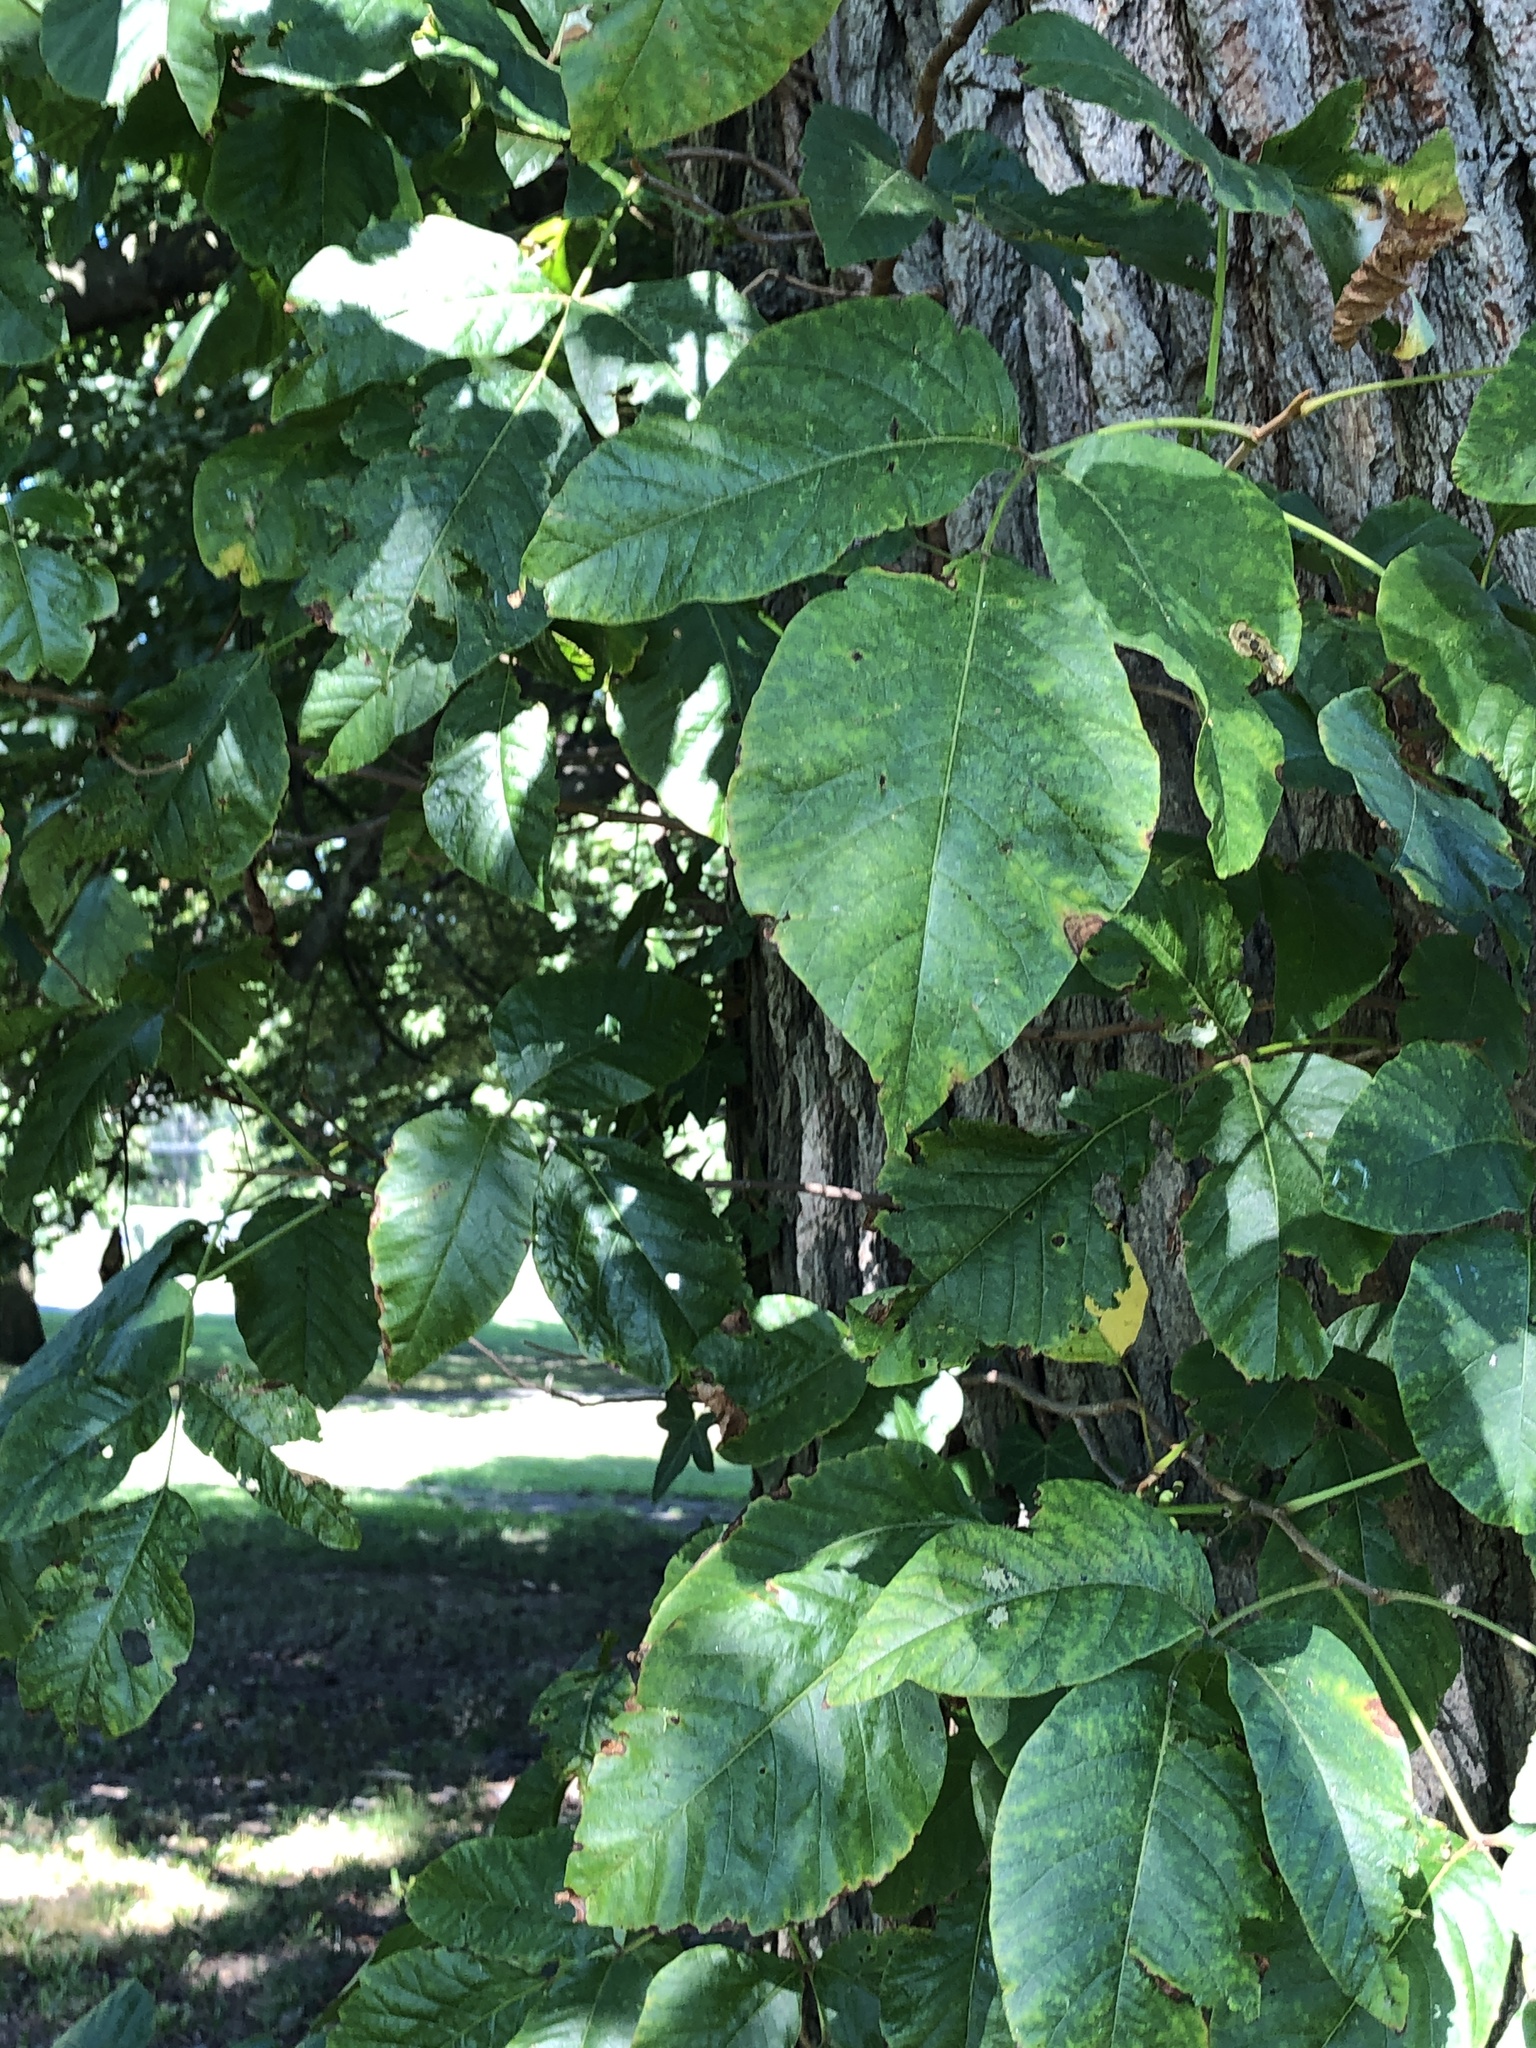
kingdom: Plantae
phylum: Tracheophyta
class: Magnoliopsida
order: Sapindales
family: Anacardiaceae
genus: Toxicodendron
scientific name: Toxicodendron radicans
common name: Poison ivy
